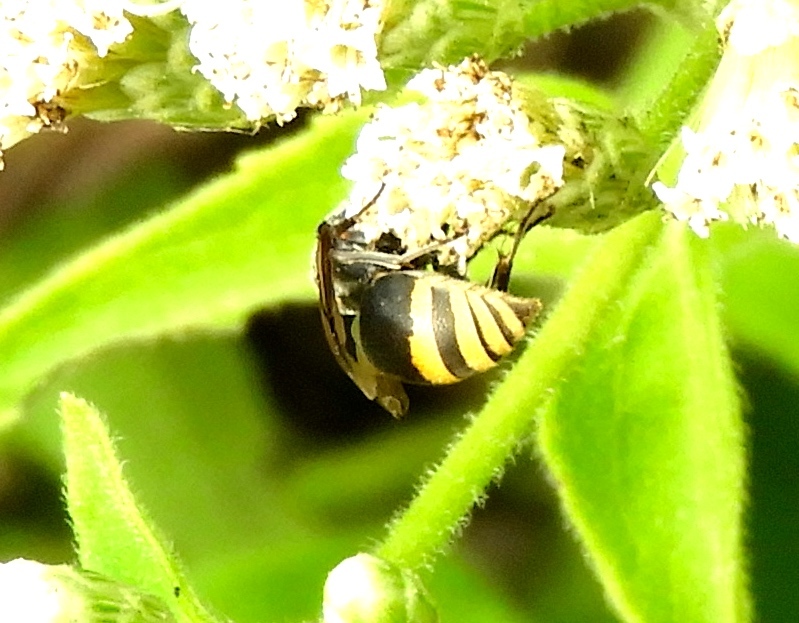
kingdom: Animalia
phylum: Arthropoda
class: Insecta
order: Hymenoptera
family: Vespidae
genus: Brachygastra
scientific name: Brachygastra azteca
